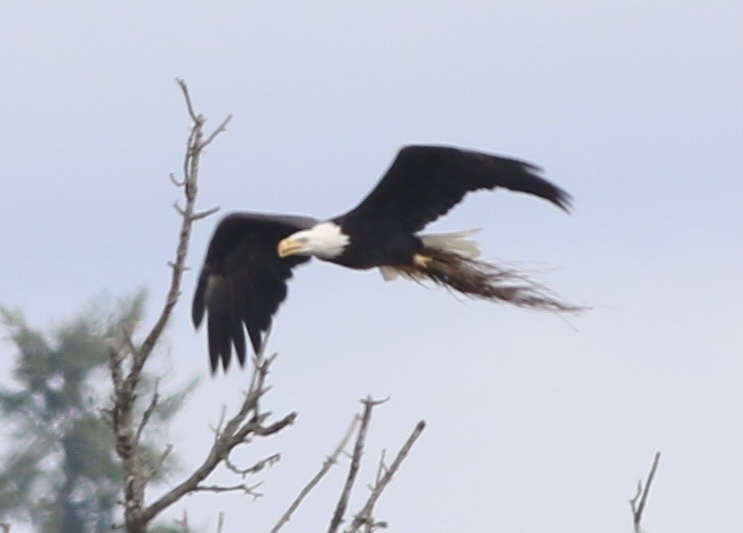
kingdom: Animalia
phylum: Chordata
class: Aves
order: Accipitriformes
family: Accipitridae
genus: Haliaeetus
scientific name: Haliaeetus leucocephalus
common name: Bald eagle
